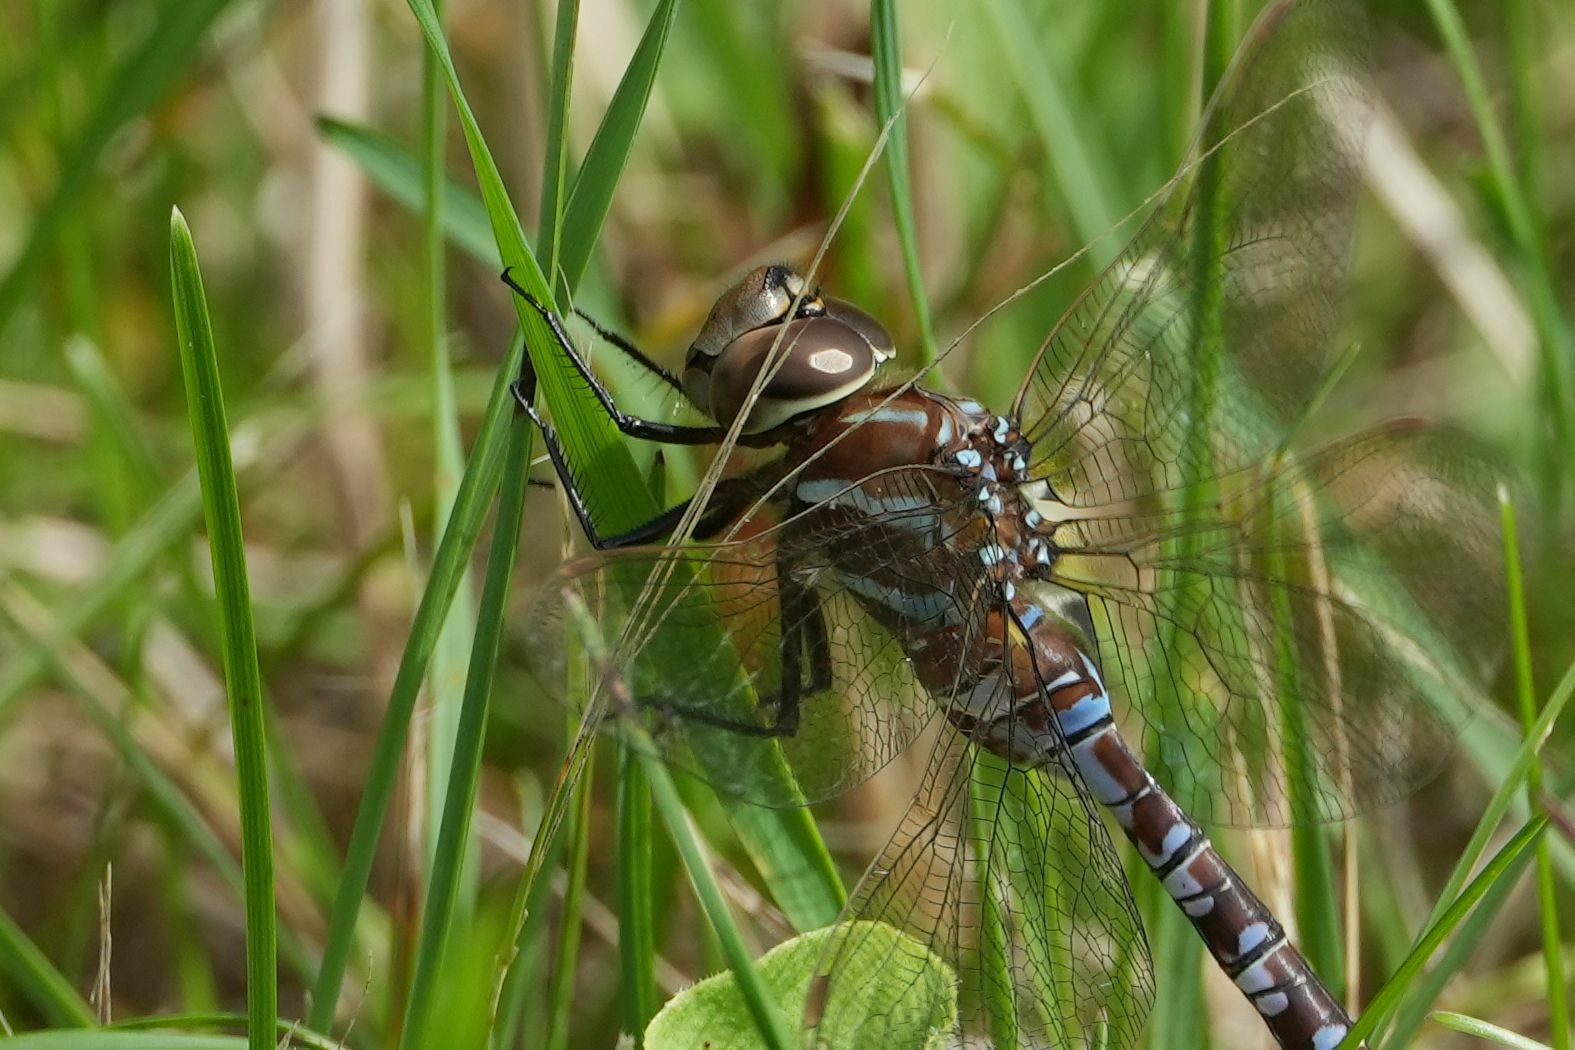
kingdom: Animalia
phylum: Arthropoda
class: Insecta
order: Odonata
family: Aeshnidae
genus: Aeshna
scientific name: Aeshna constricta
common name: Lance-tipped darner
